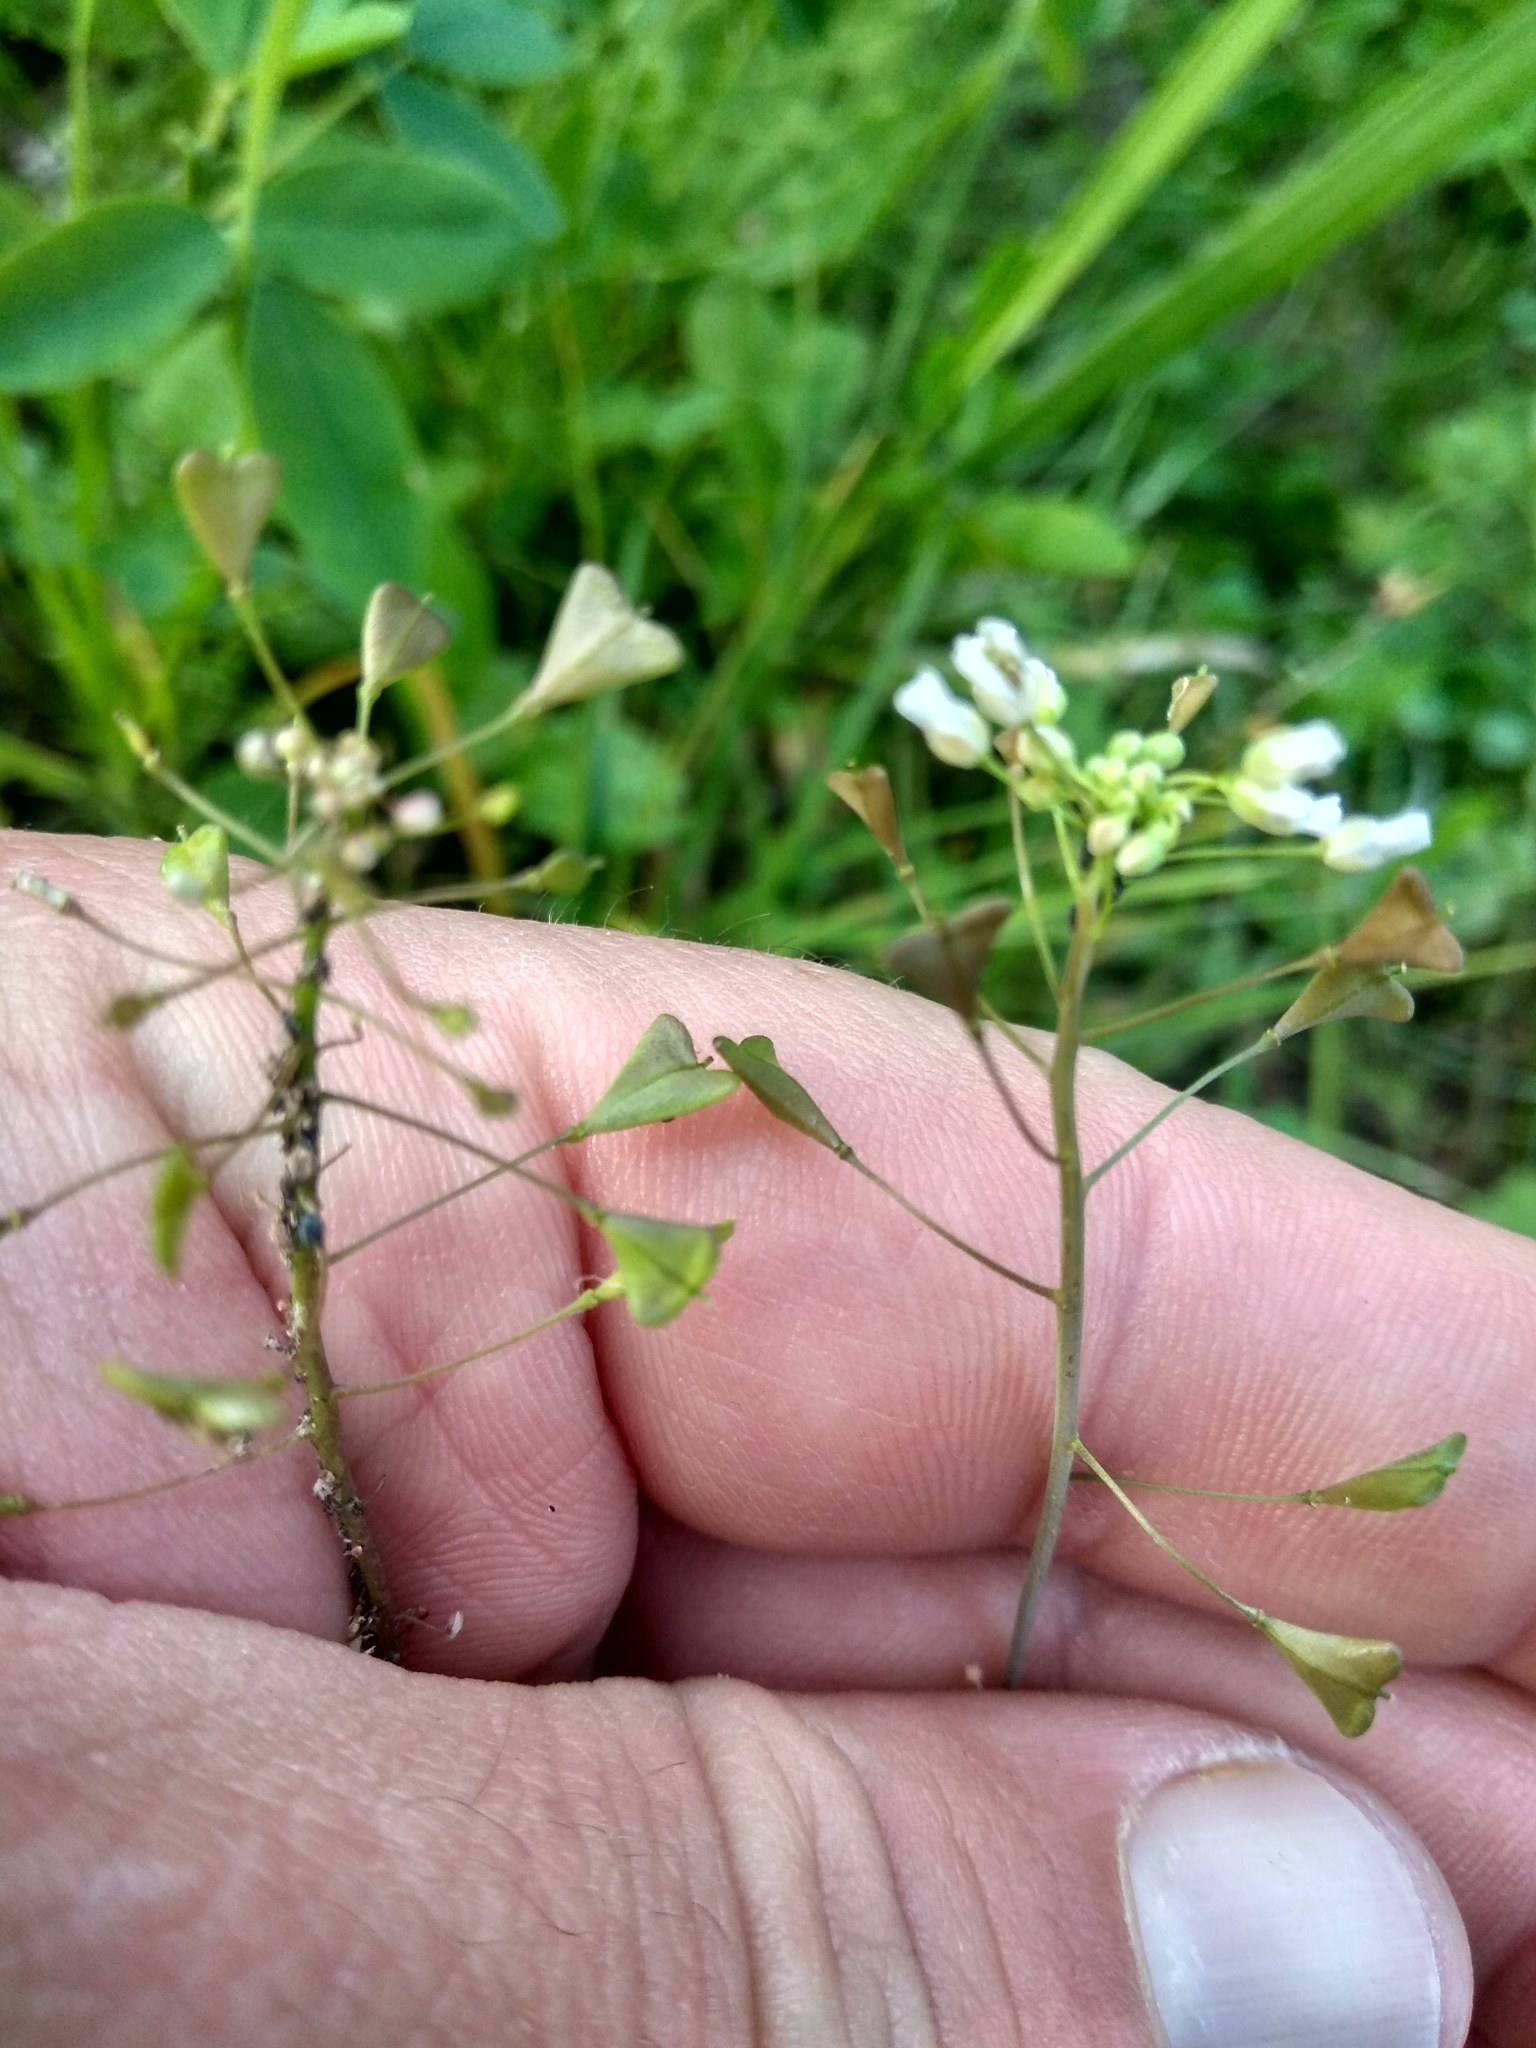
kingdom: Plantae
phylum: Tracheophyta
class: Magnoliopsida
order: Brassicales
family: Brassicaceae
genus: Capsella
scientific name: Capsella bursa-pastoris
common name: Shepherd's purse
